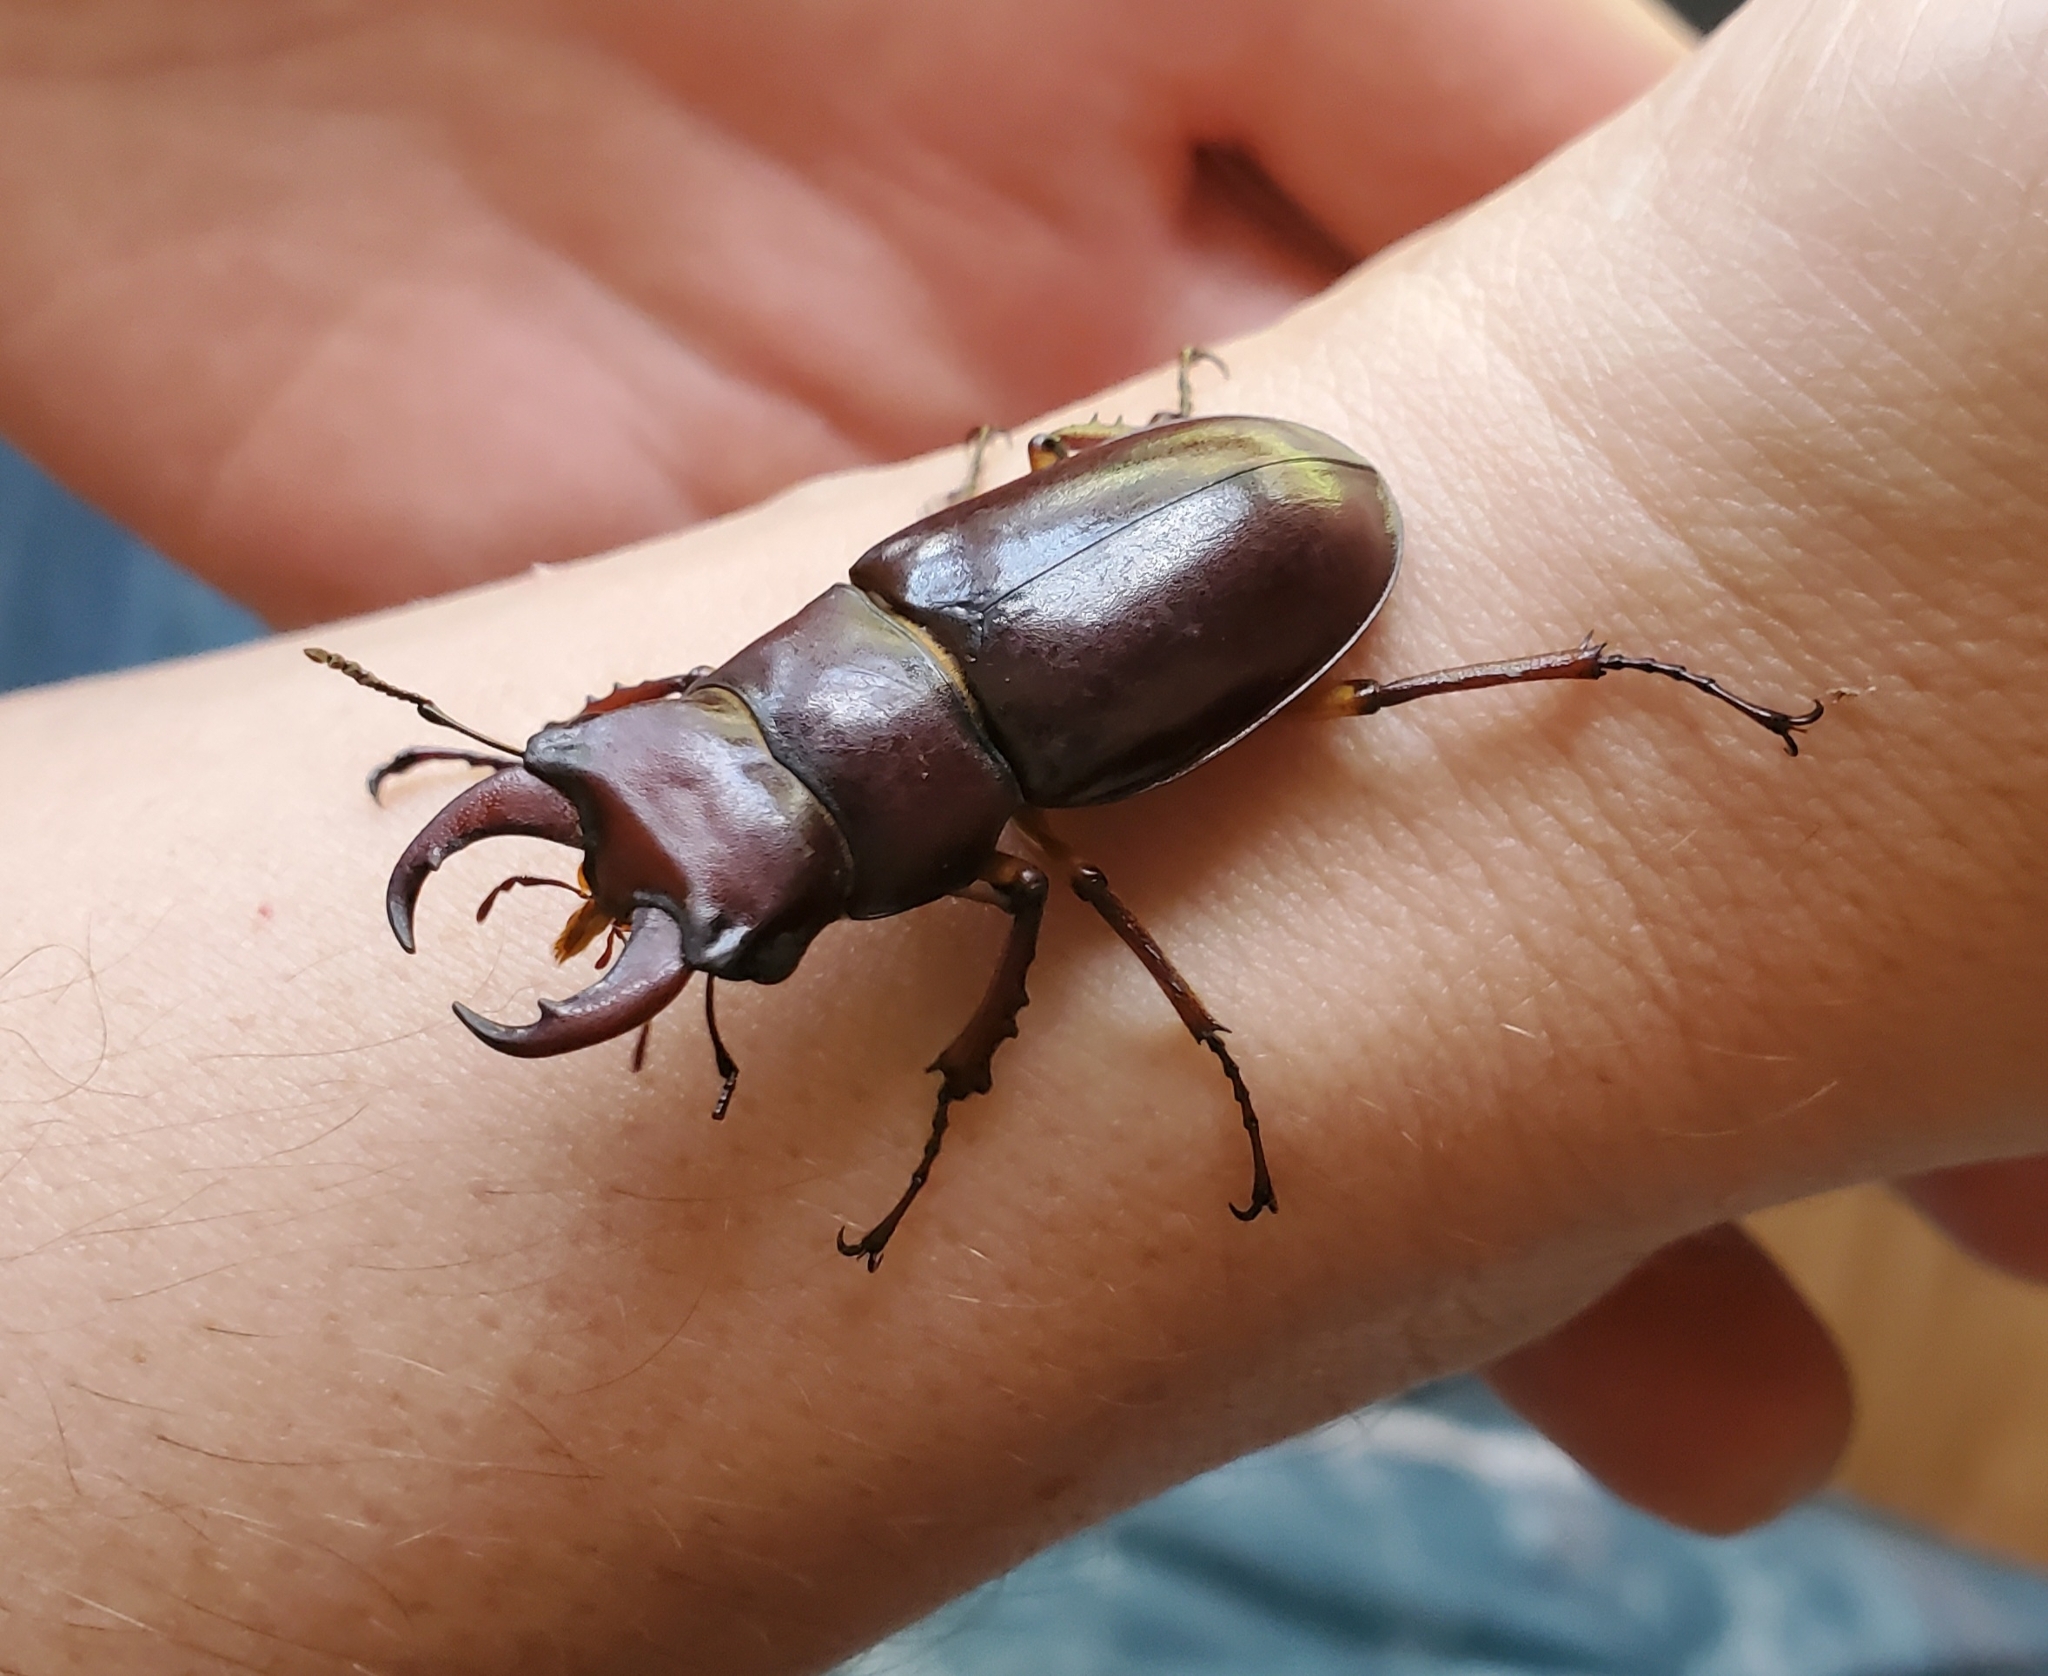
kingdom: Animalia
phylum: Arthropoda
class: Insecta
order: Coleoptera
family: Lucanidae
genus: Lucanus
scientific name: Lucanus capreolus
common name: Stag beetle
